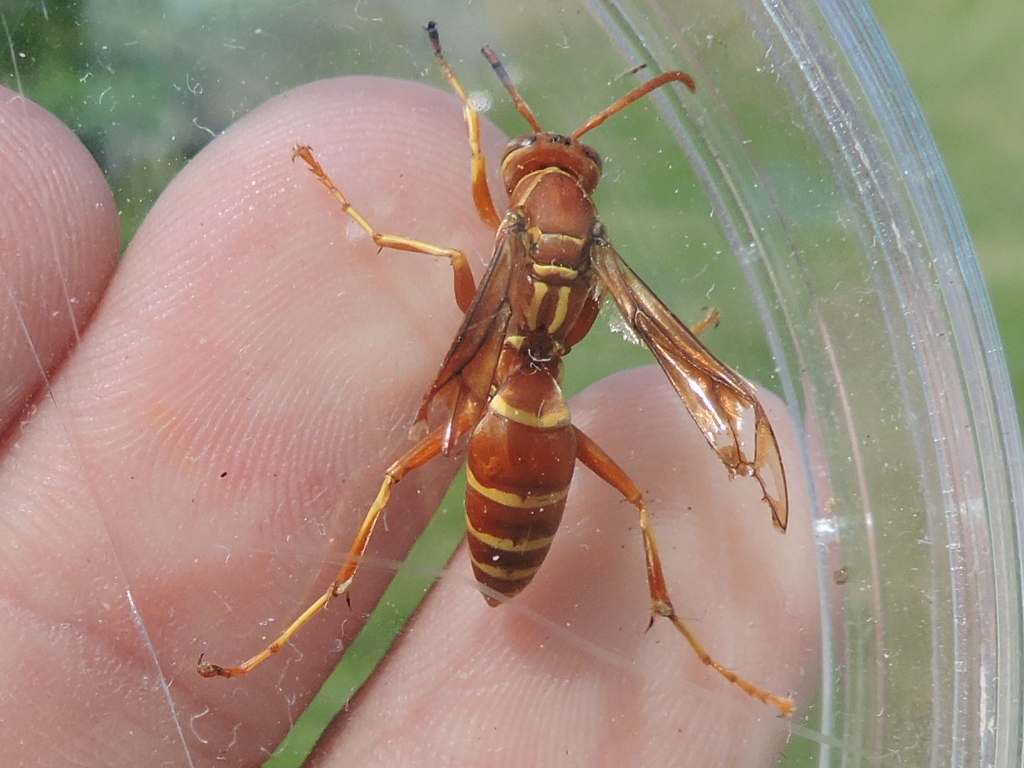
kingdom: Animalia
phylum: Arthropoda
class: Insecta
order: Hymenoptera
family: Eumenidae
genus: Polistes
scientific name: Polistes bellicosus
